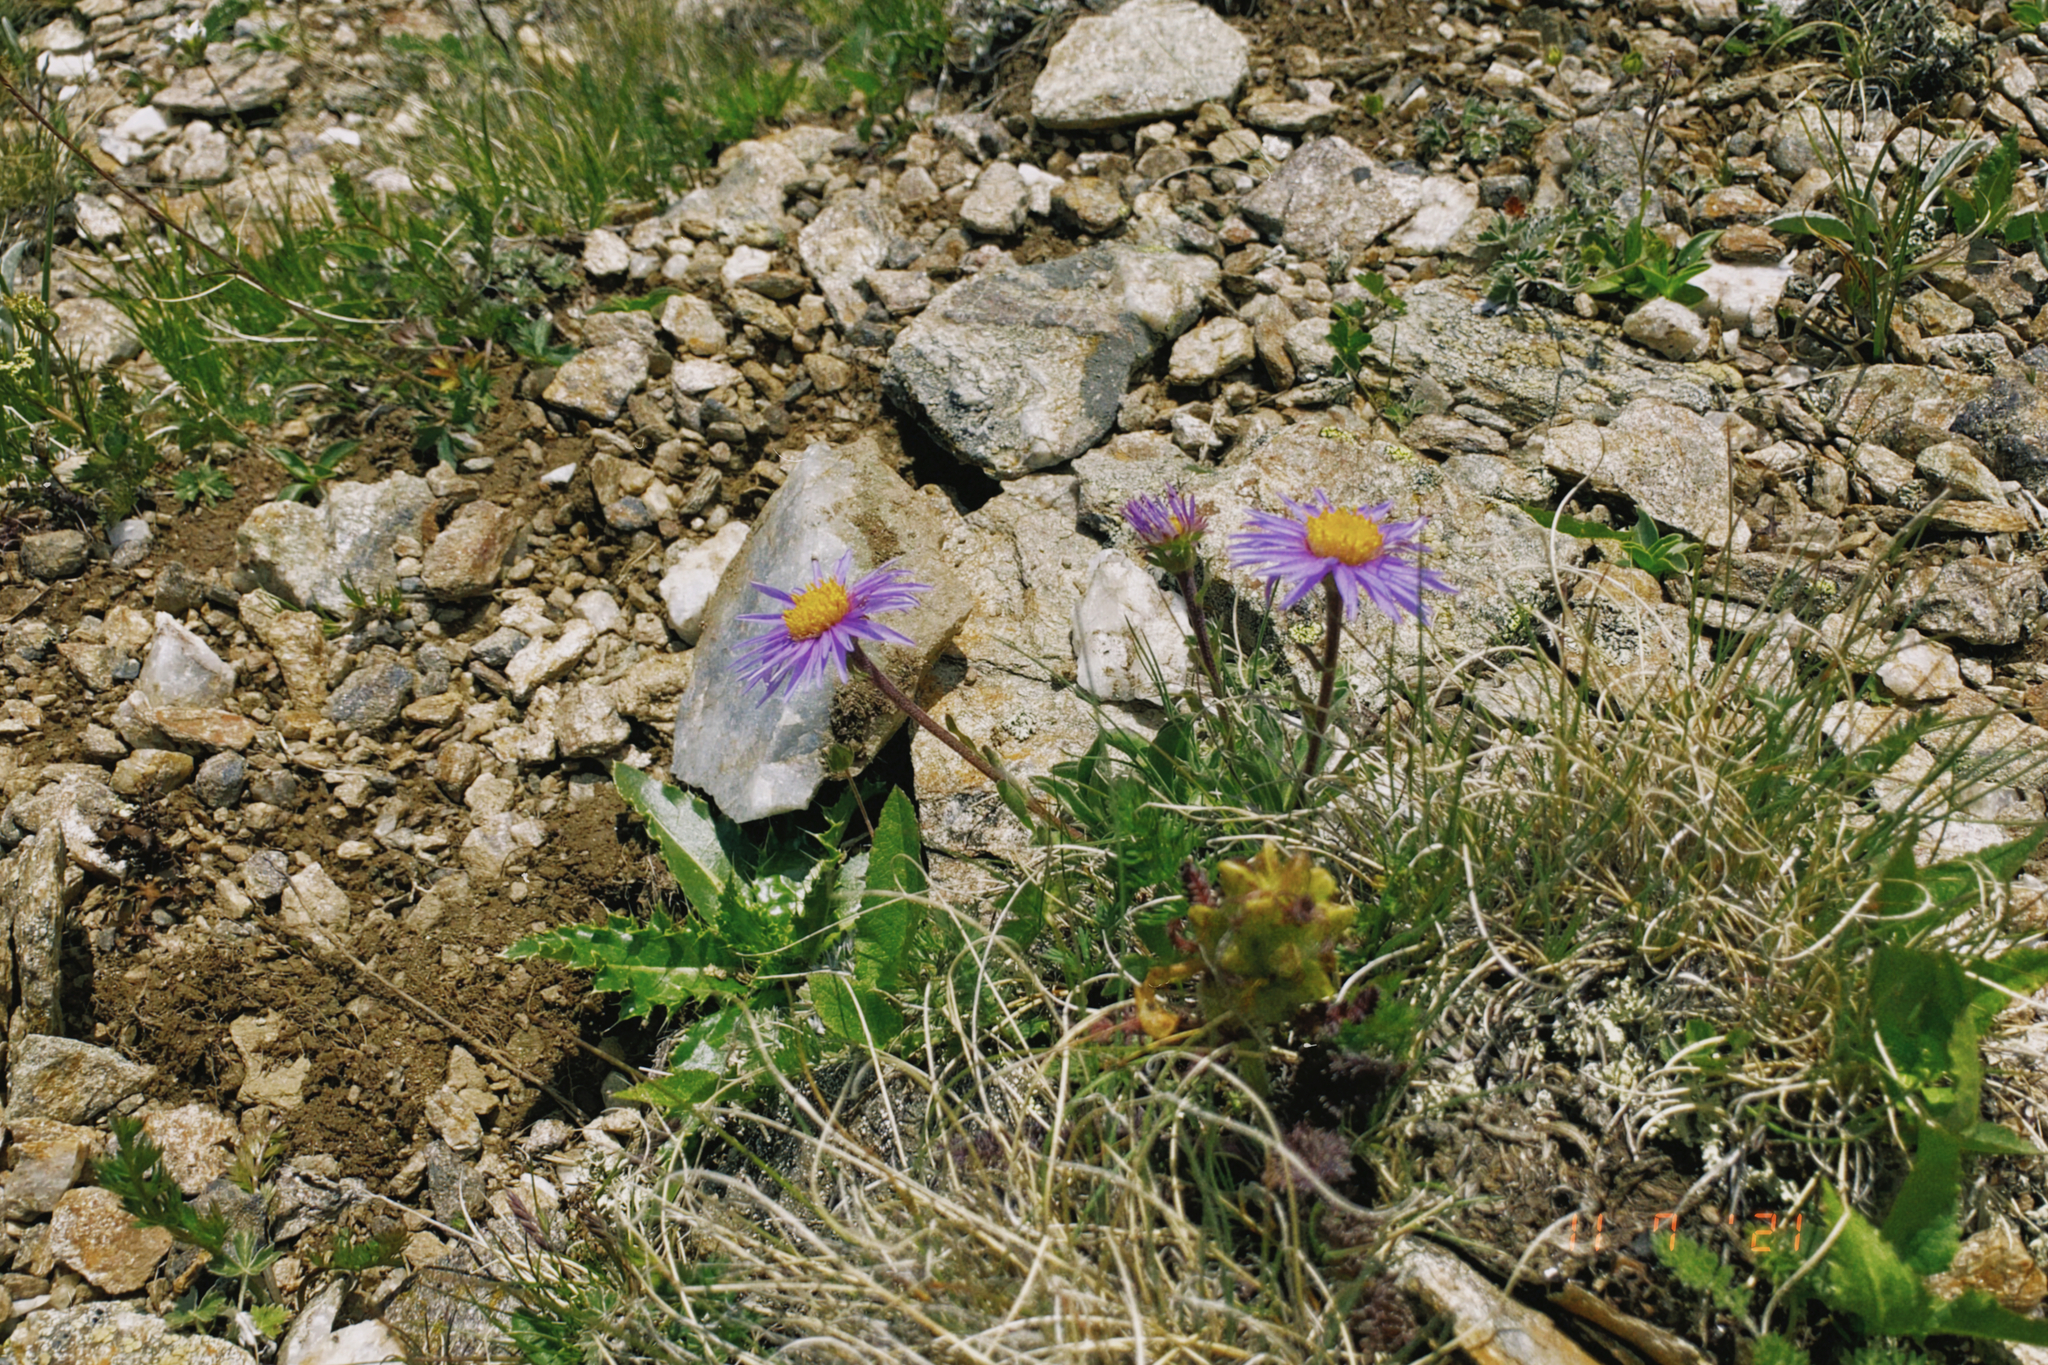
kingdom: Plantae
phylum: Tracheophyta
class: Magnoliopsida
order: Asterales
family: Asteraceae
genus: Aster
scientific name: Aster alpinus
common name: Alpine aster
